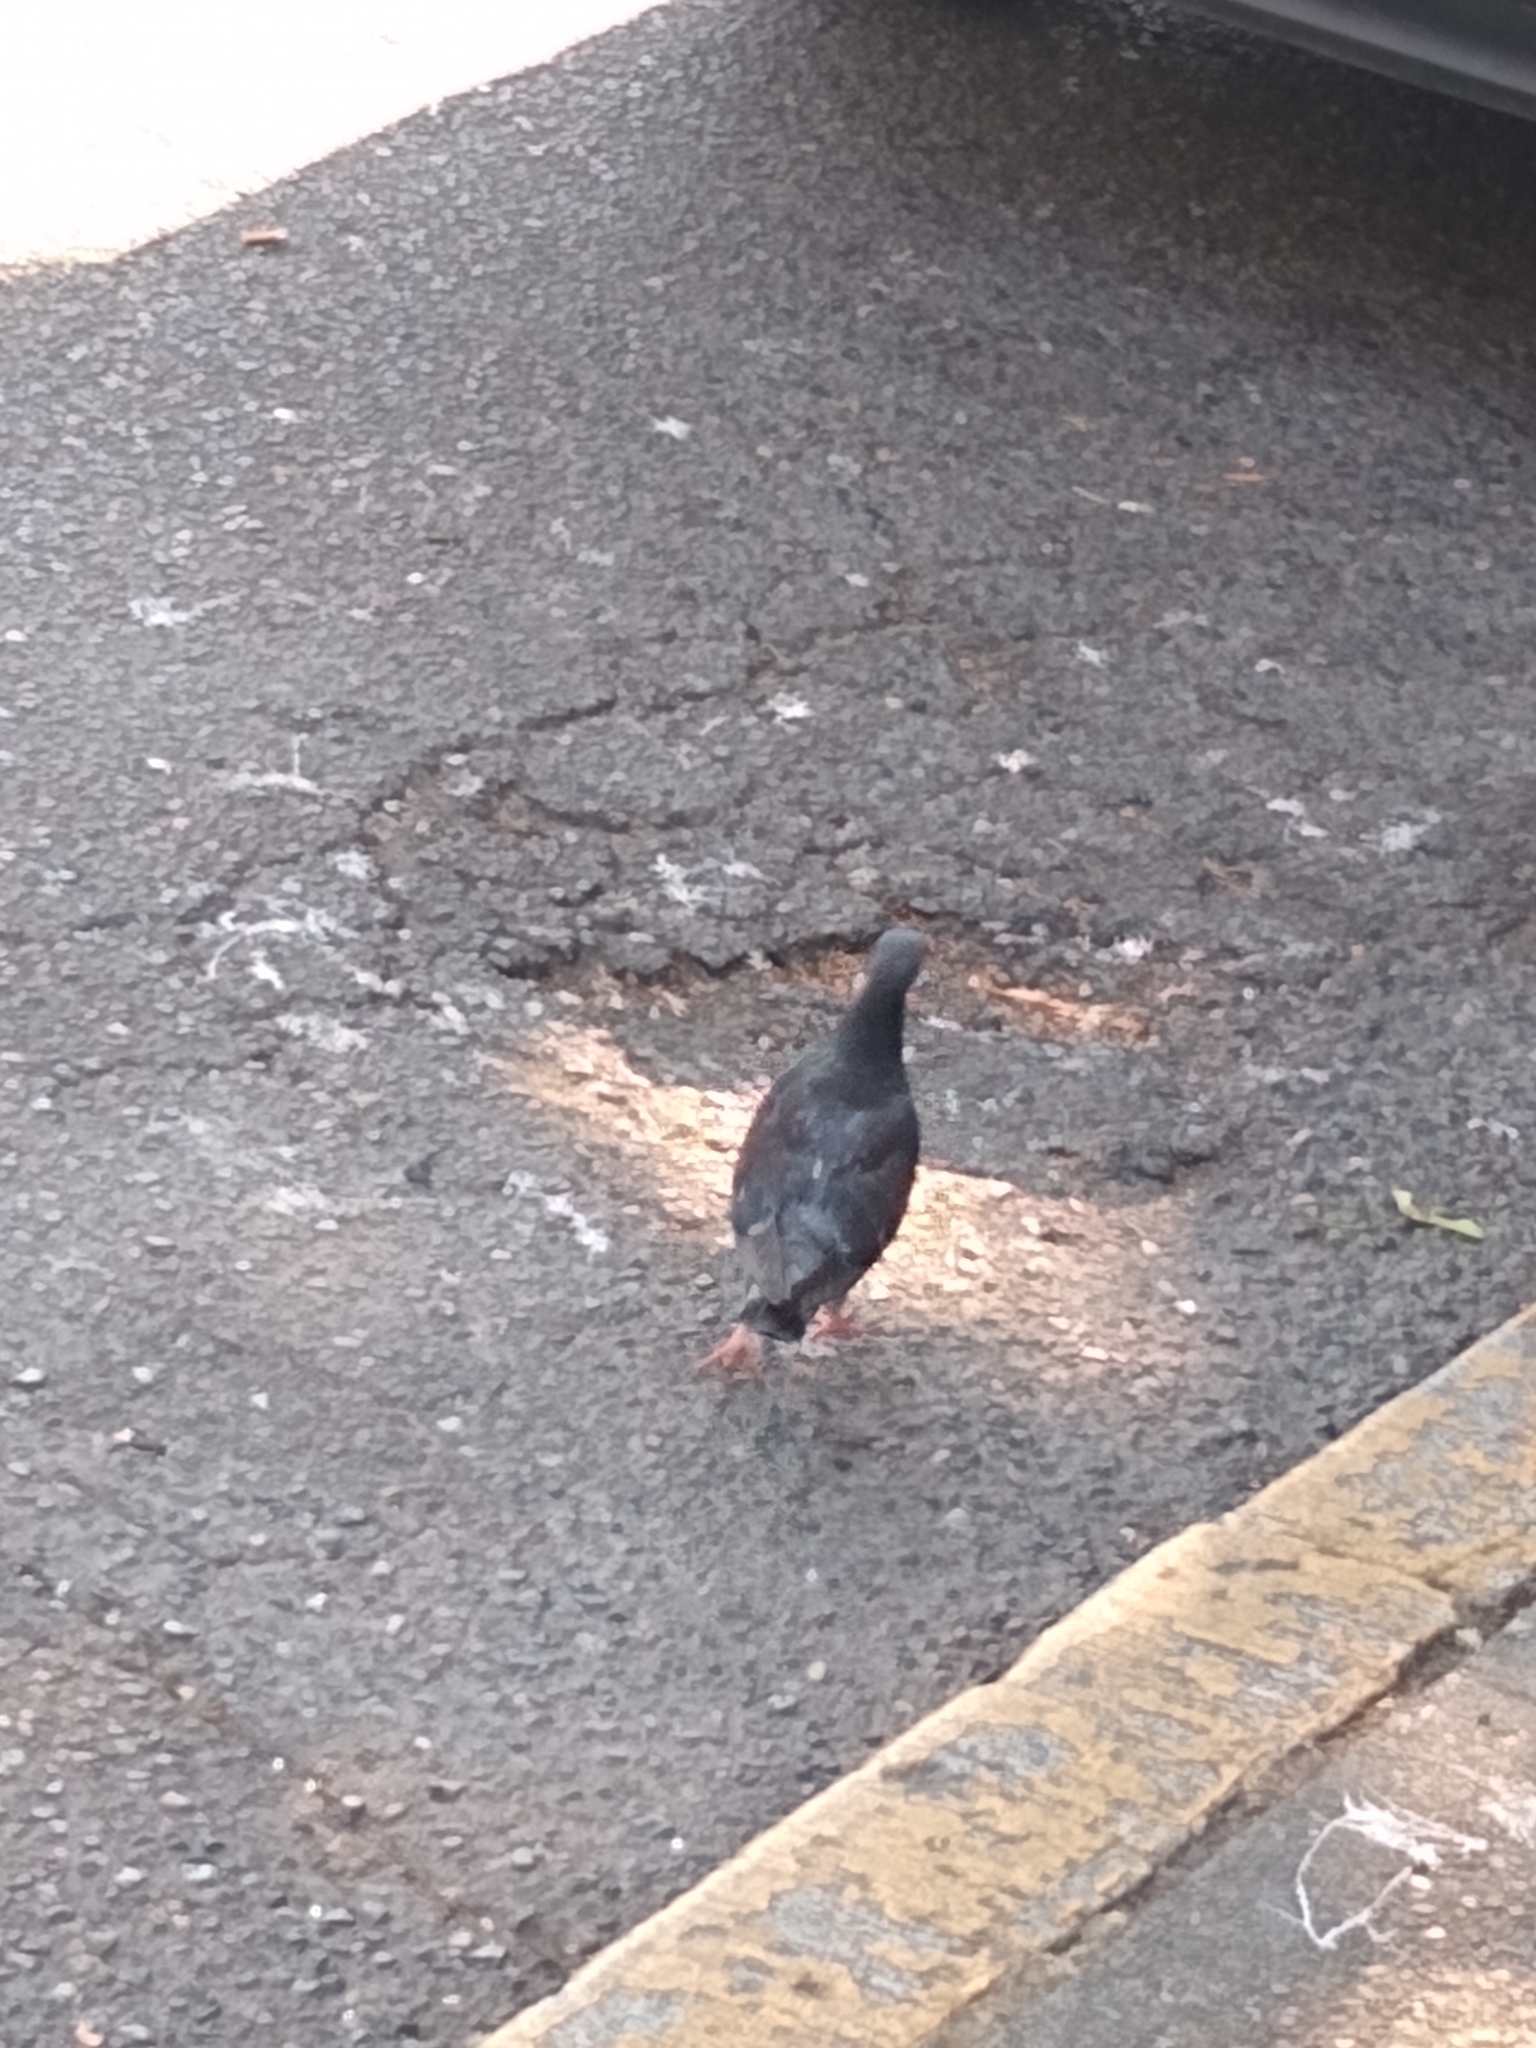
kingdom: Animalia
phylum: Chordata
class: Aves
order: Columbiformes
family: Columbidae
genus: Columba
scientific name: Columba livia
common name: Rock pigeon
